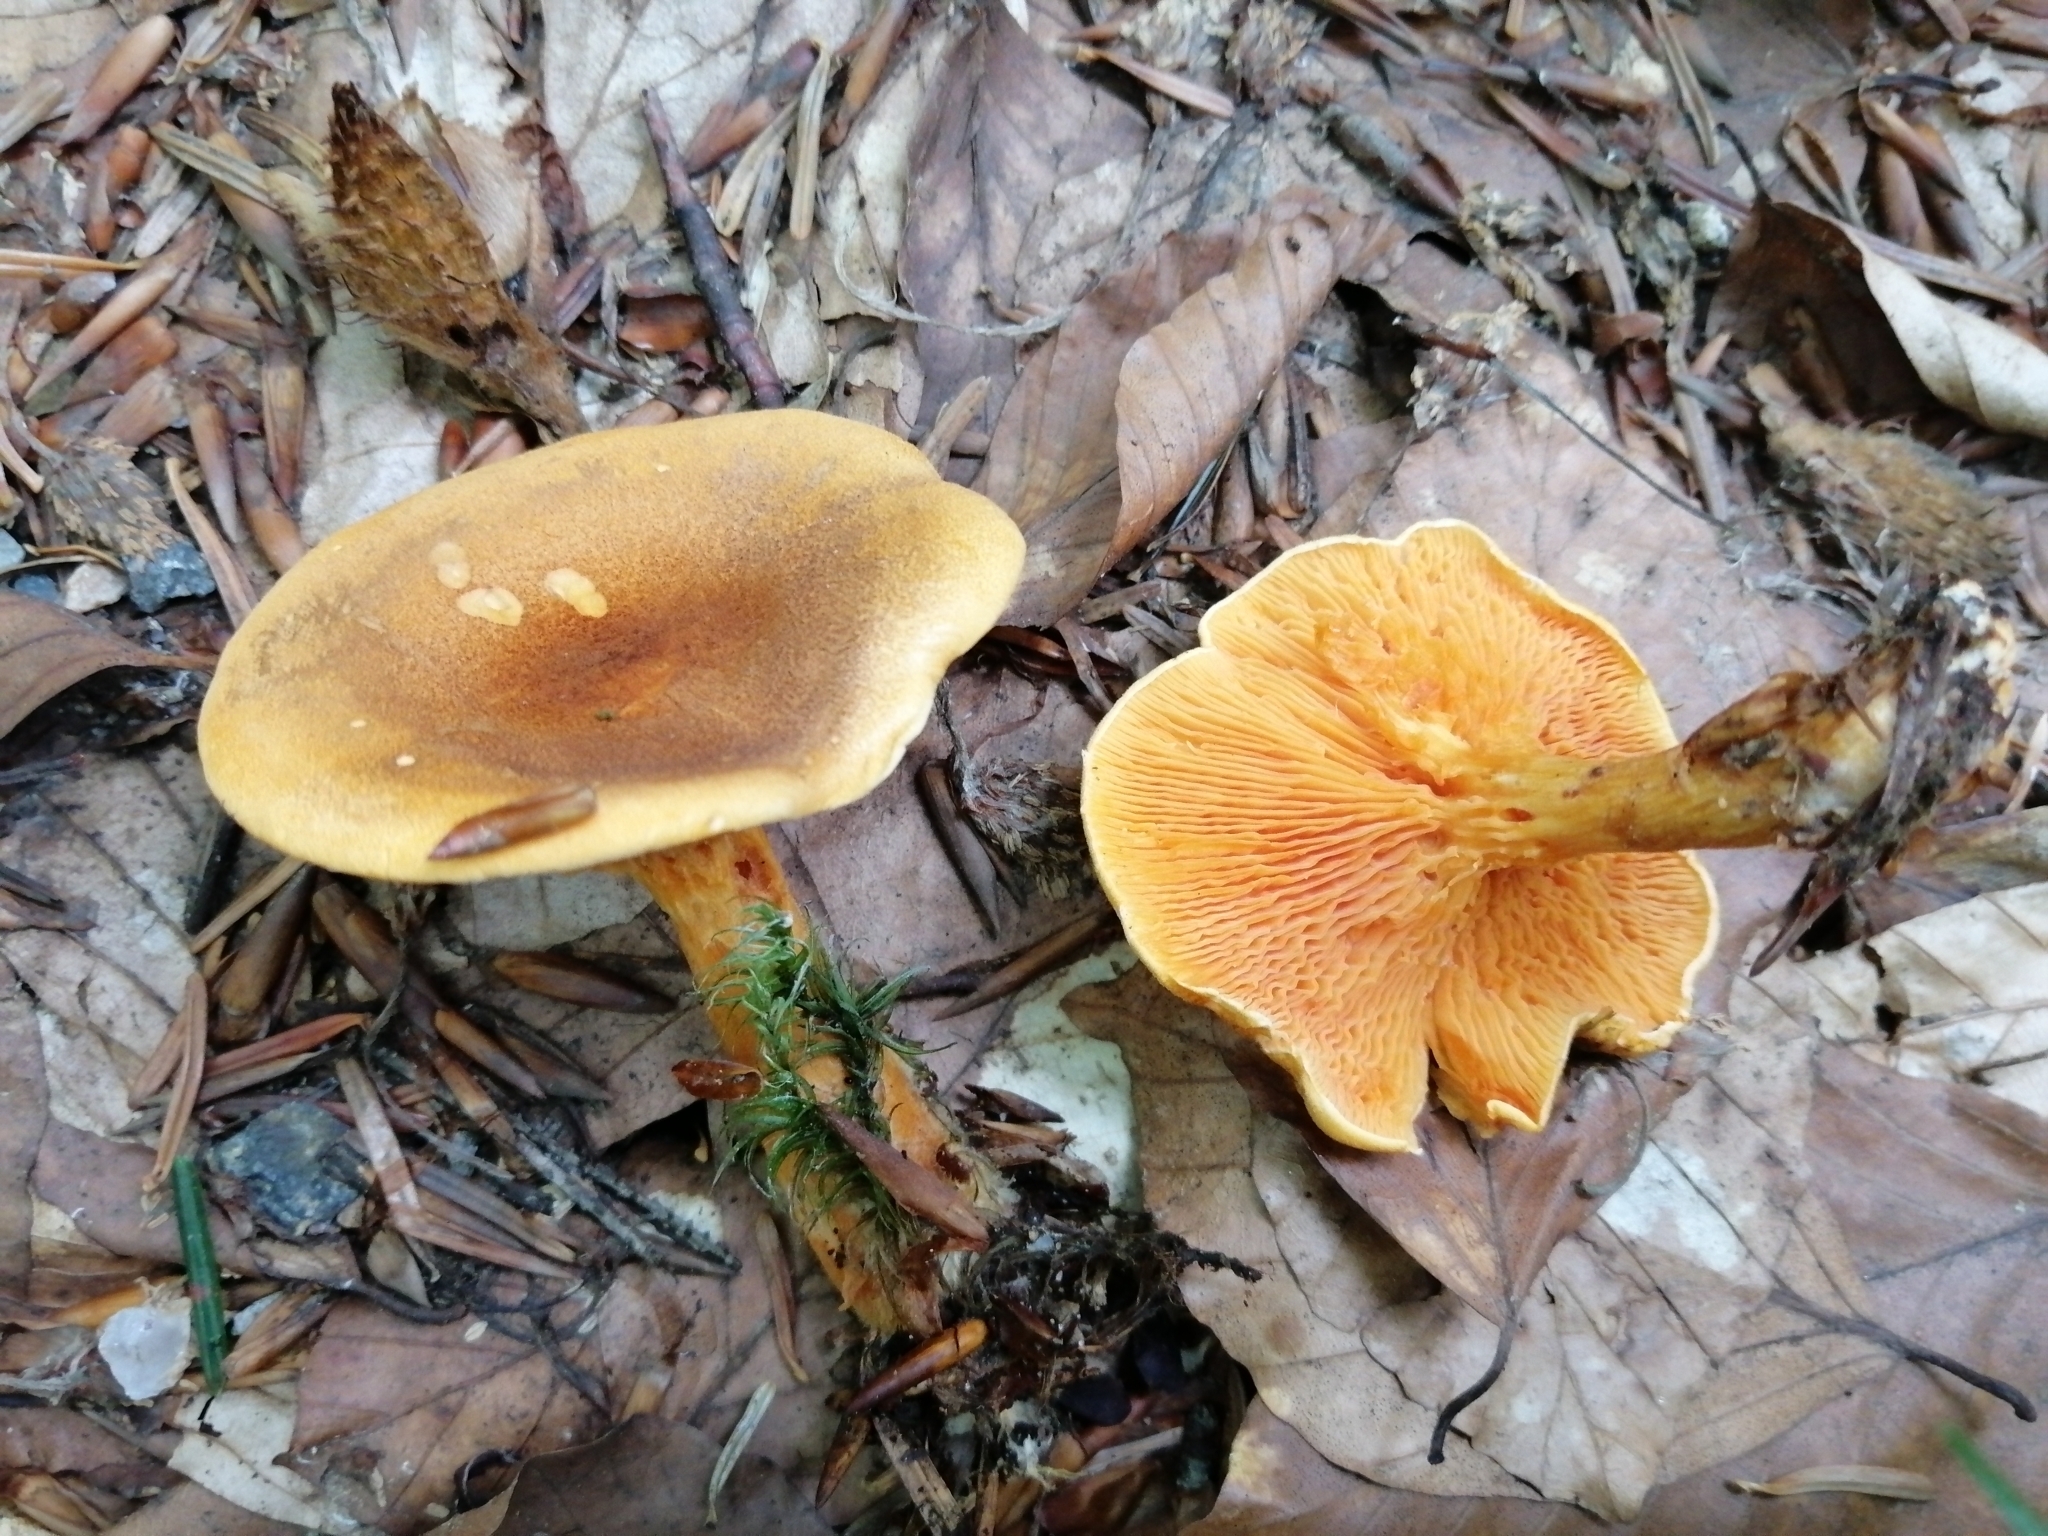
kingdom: Fungi
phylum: Basidiomycota
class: Agaricomycetes
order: Boletales
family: Hygrophoropsidaceae
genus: Hygrophoropsis
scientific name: Hygrophoropsis rufa
